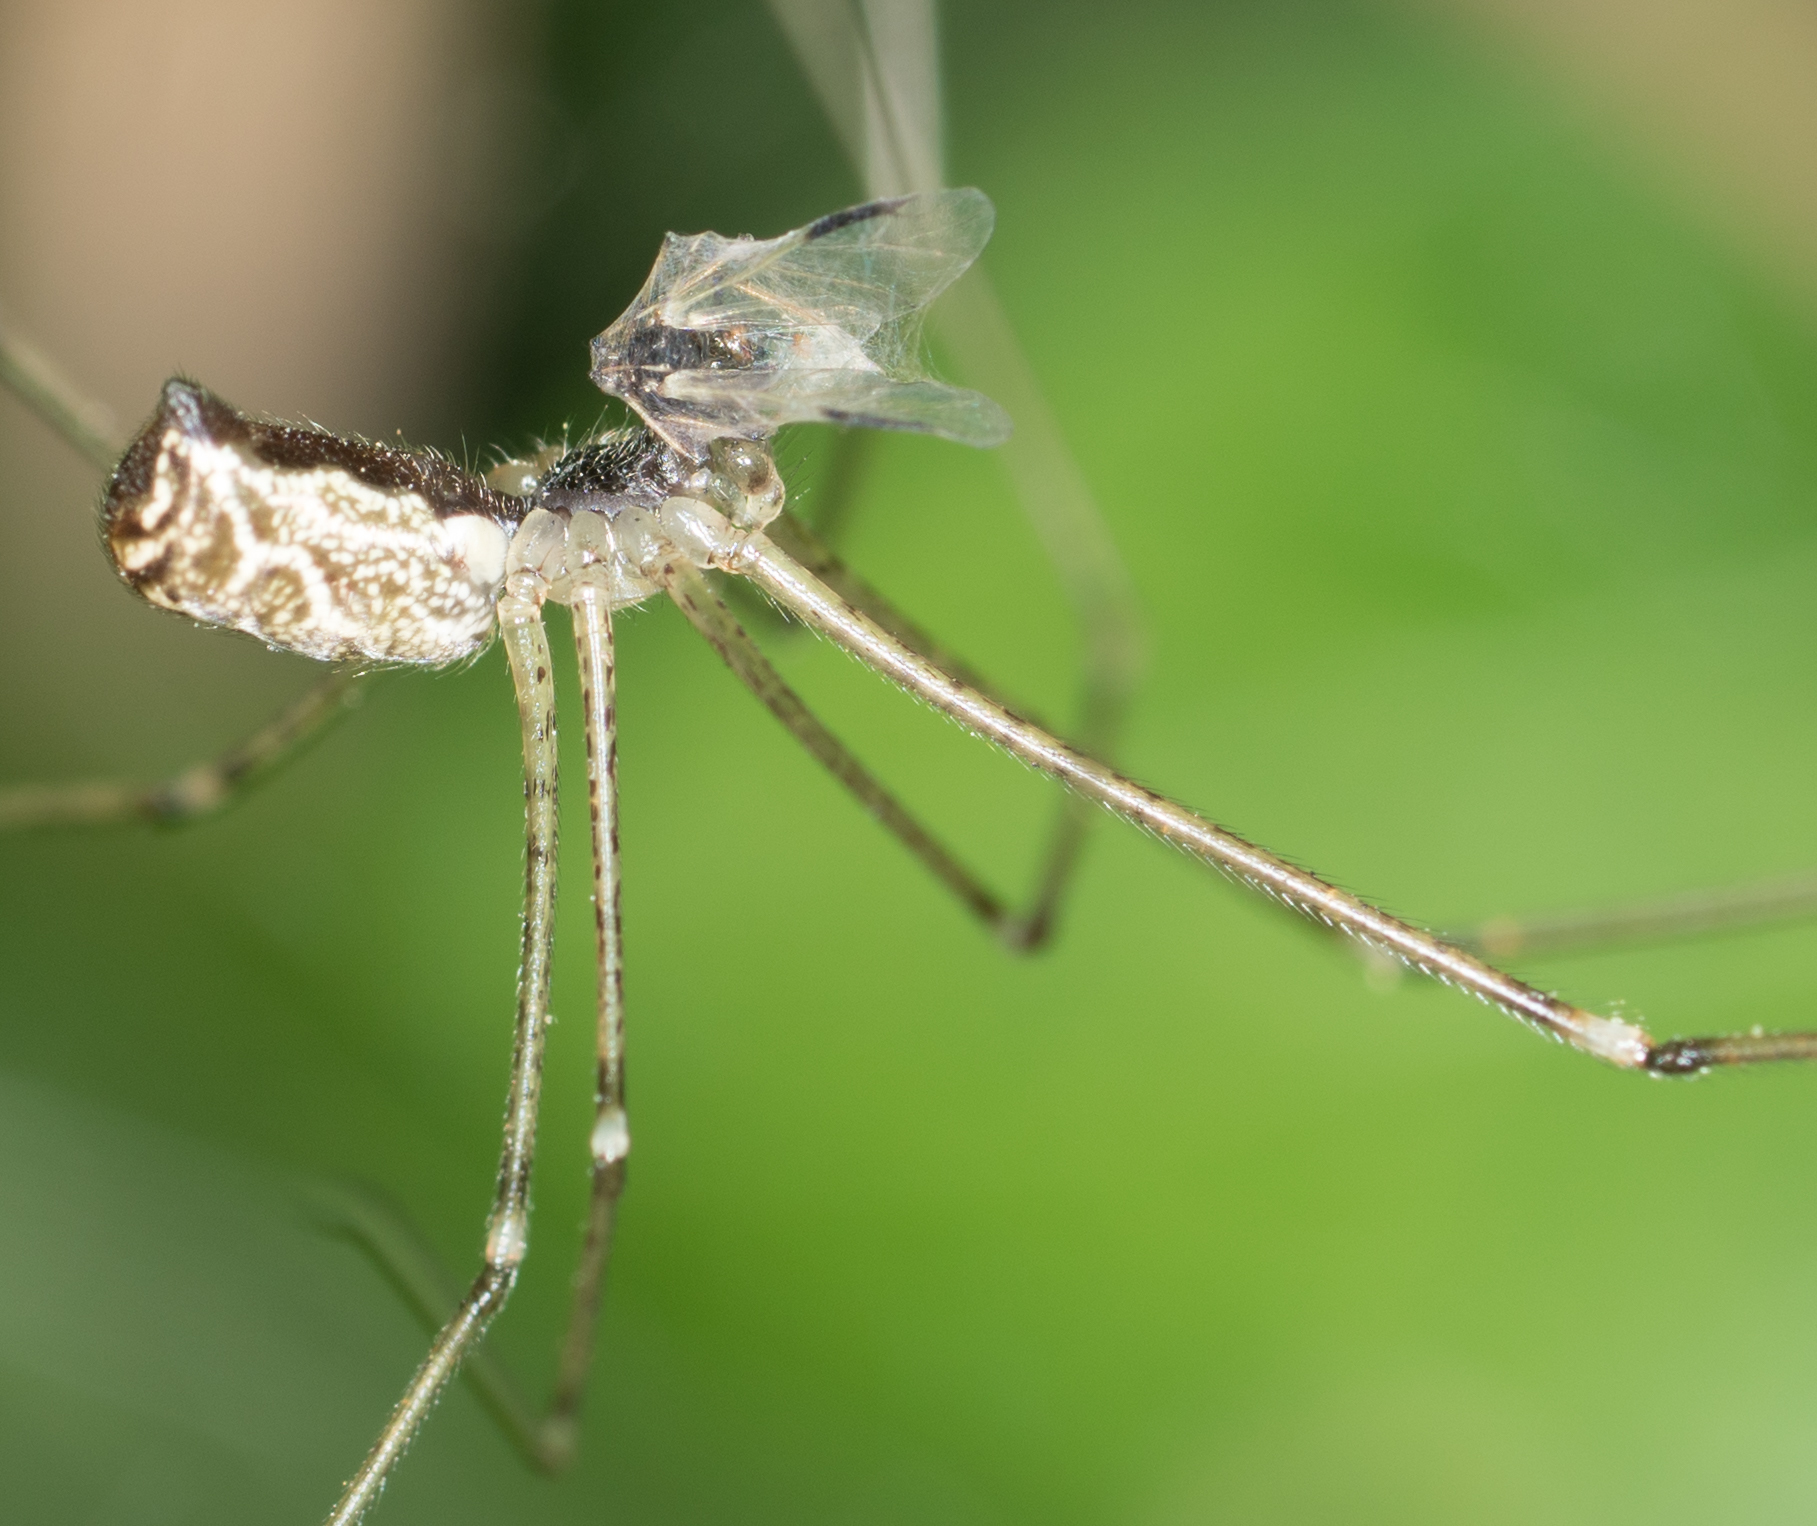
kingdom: Animalia
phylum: Arthropoda
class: Arachnida
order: Araneae
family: Pholcidae
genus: Holocnemus
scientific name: Holocnemus pluchei
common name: Marbled cellar spider
